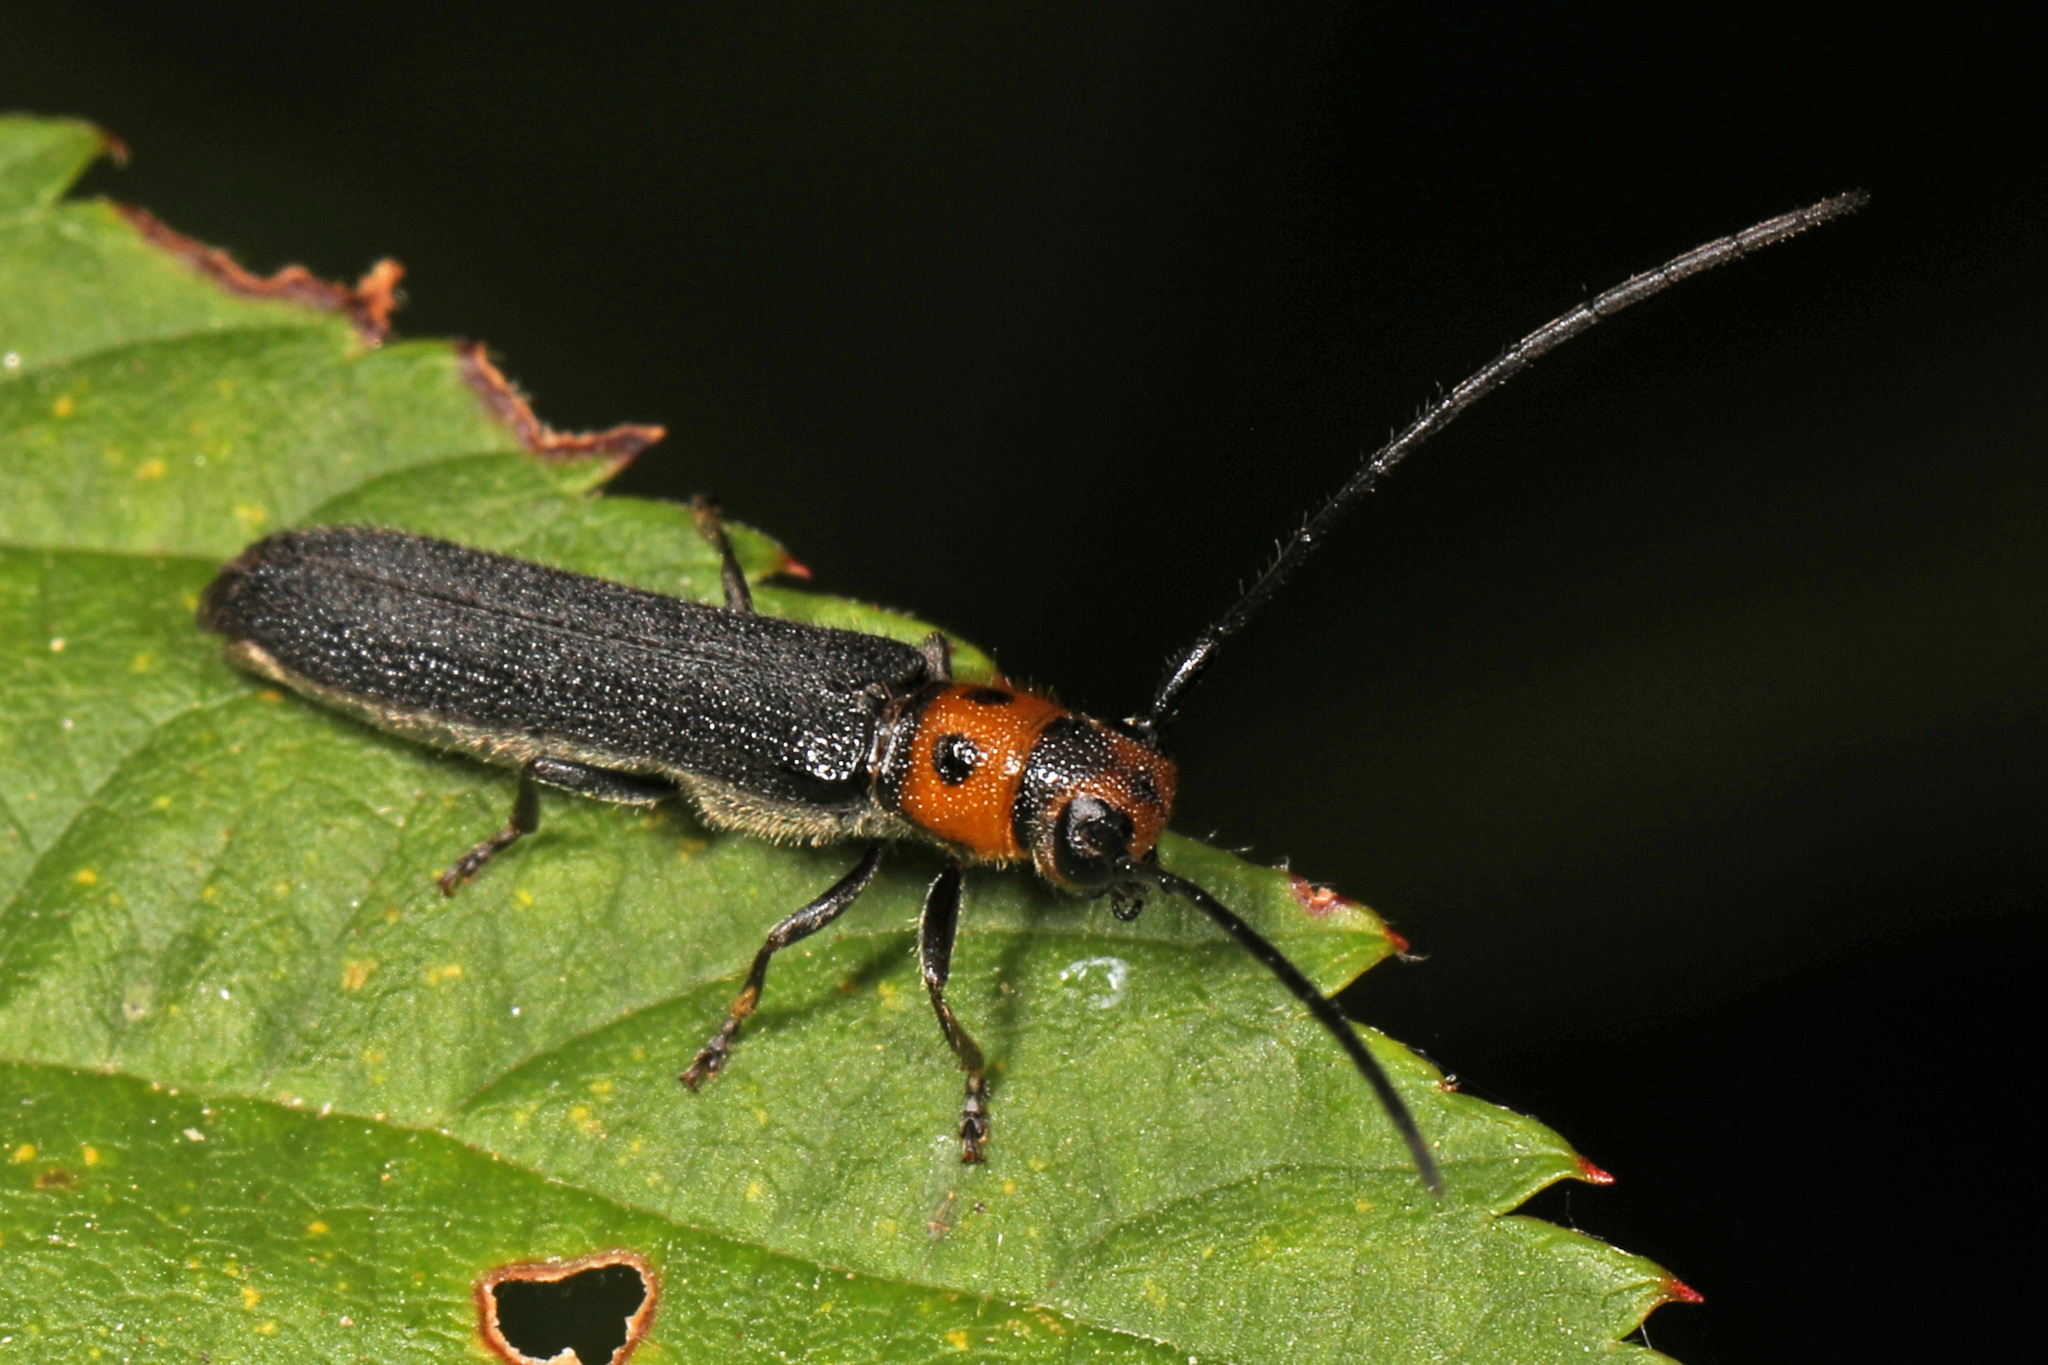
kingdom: Animalia
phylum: Arthropoda
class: Insecta
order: Coleoptera
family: Cerambycidae
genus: Oberea
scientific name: Oberea perspicillata
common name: Raspberry cane borer
